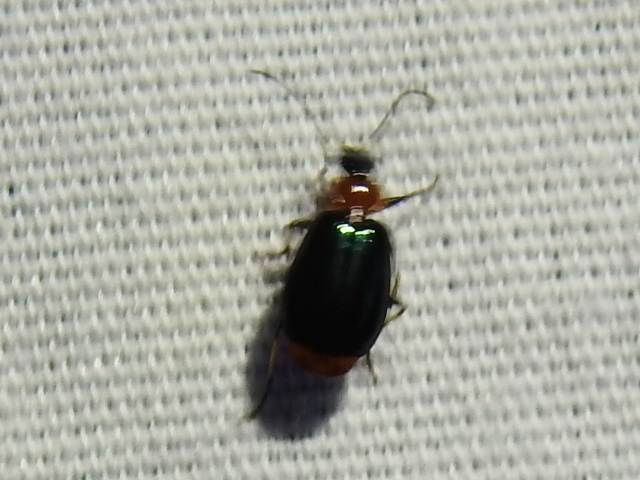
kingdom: Animalia
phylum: Arthropoda
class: Insecta
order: Coleoptera
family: Carabidae
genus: Lebia
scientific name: Lebia viridipennis
